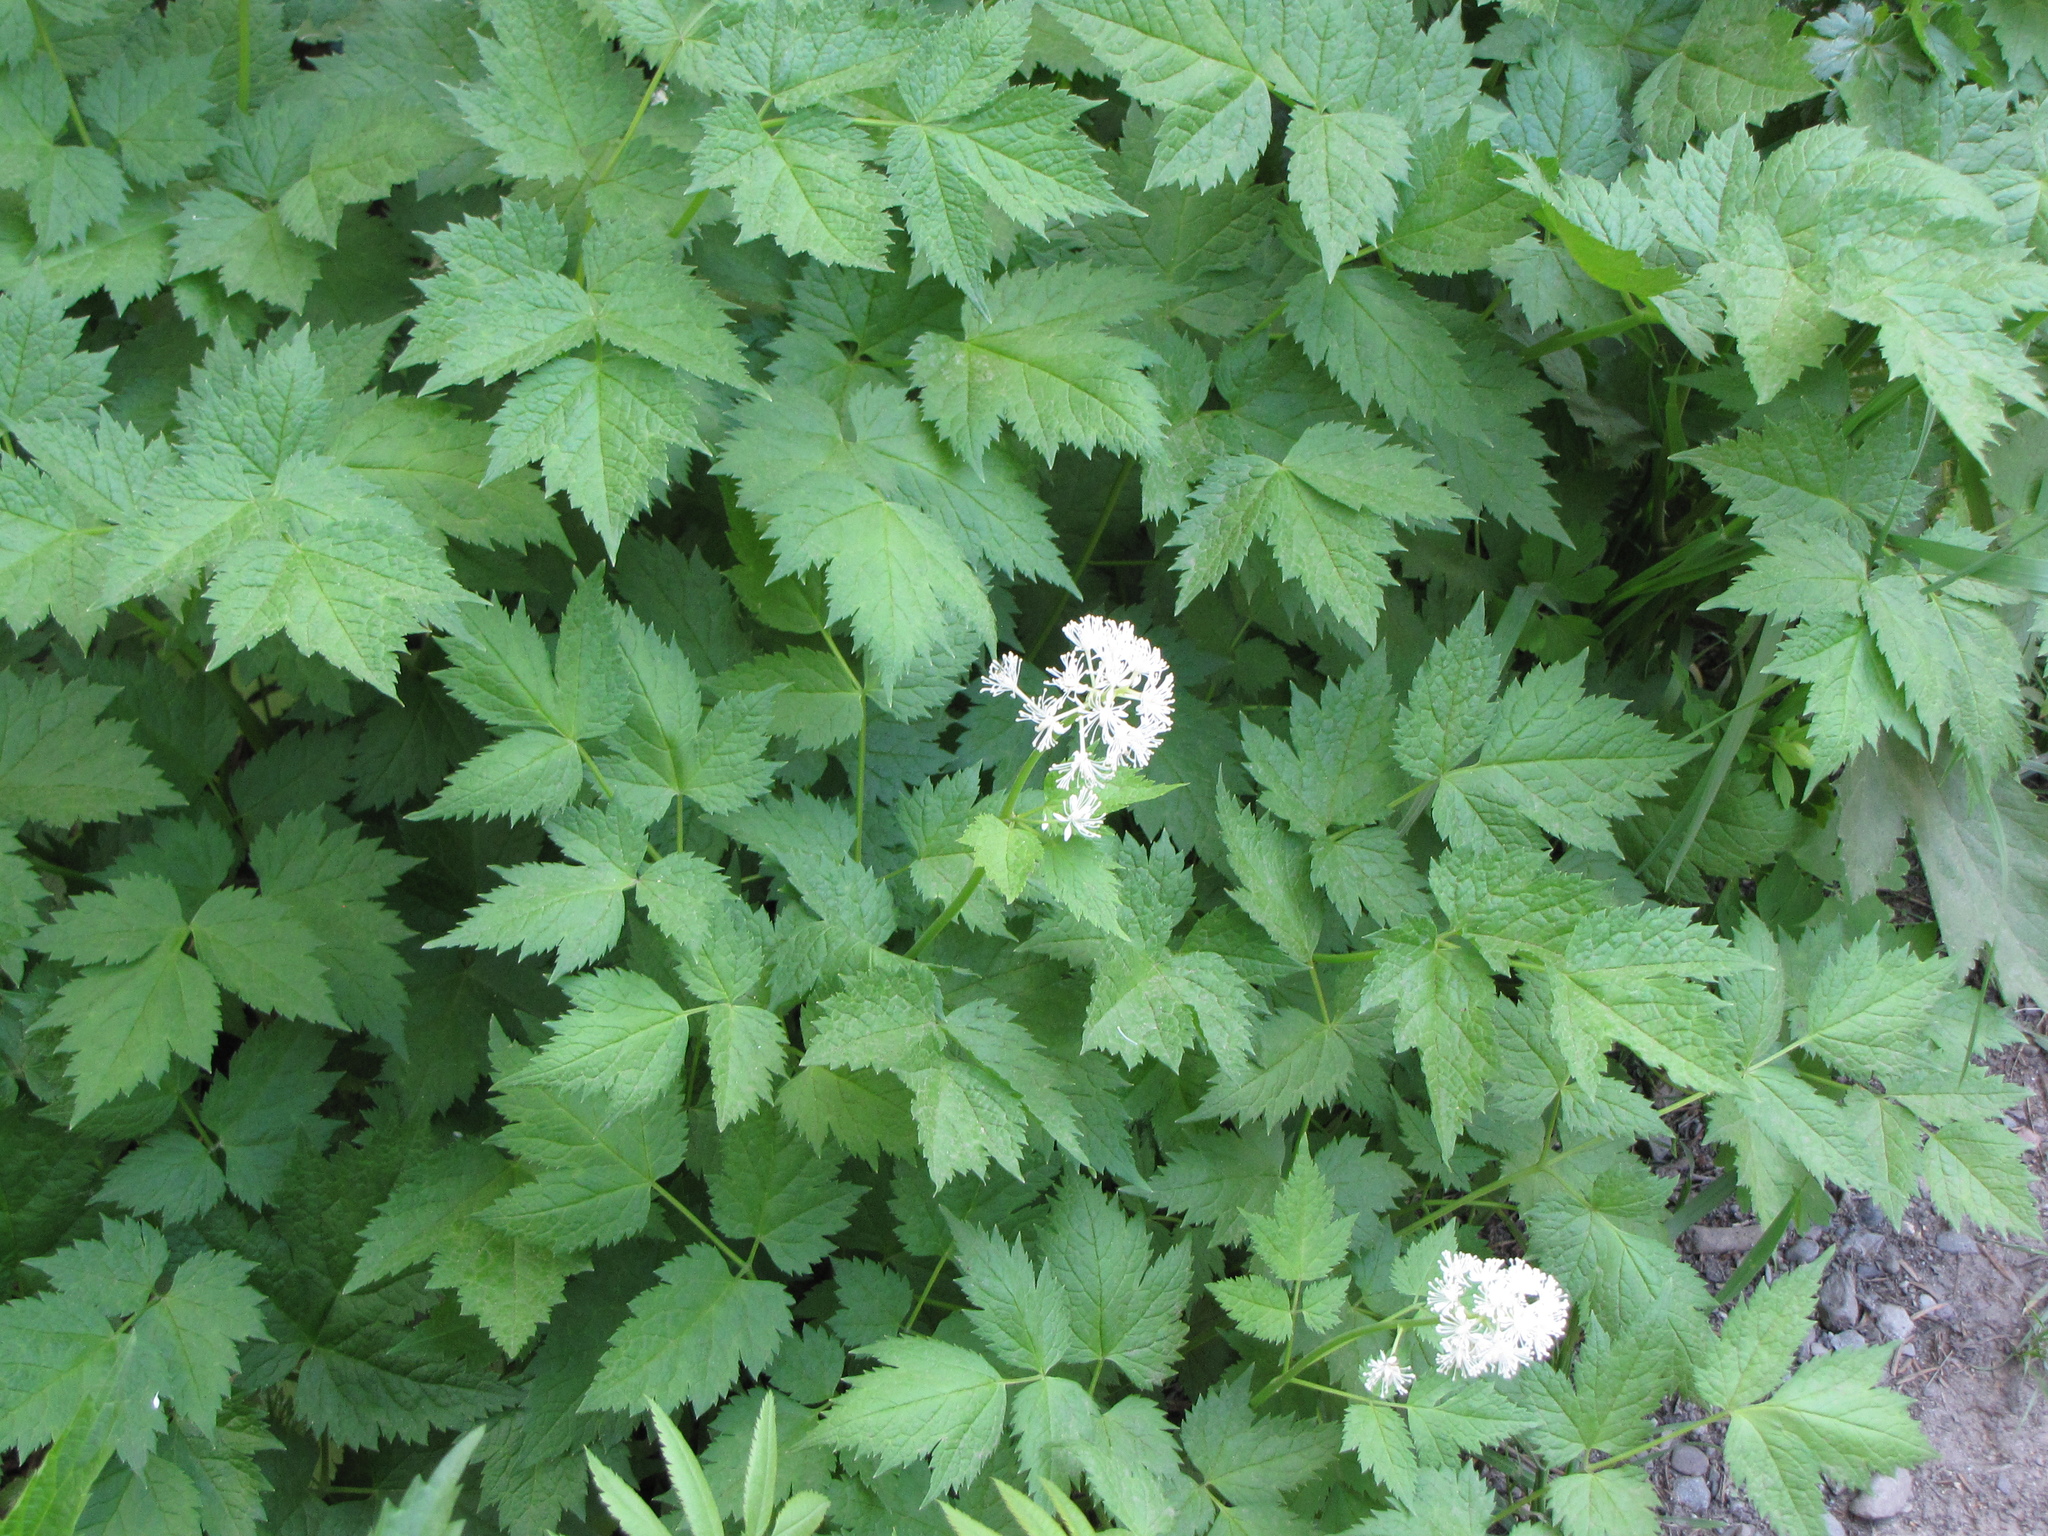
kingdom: Plantae
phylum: Tracheophyta
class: Magnoliopsida
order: Ranunculales
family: Ranunculaceae
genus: Actaea
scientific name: Actaea rubra
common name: Red baneberry
